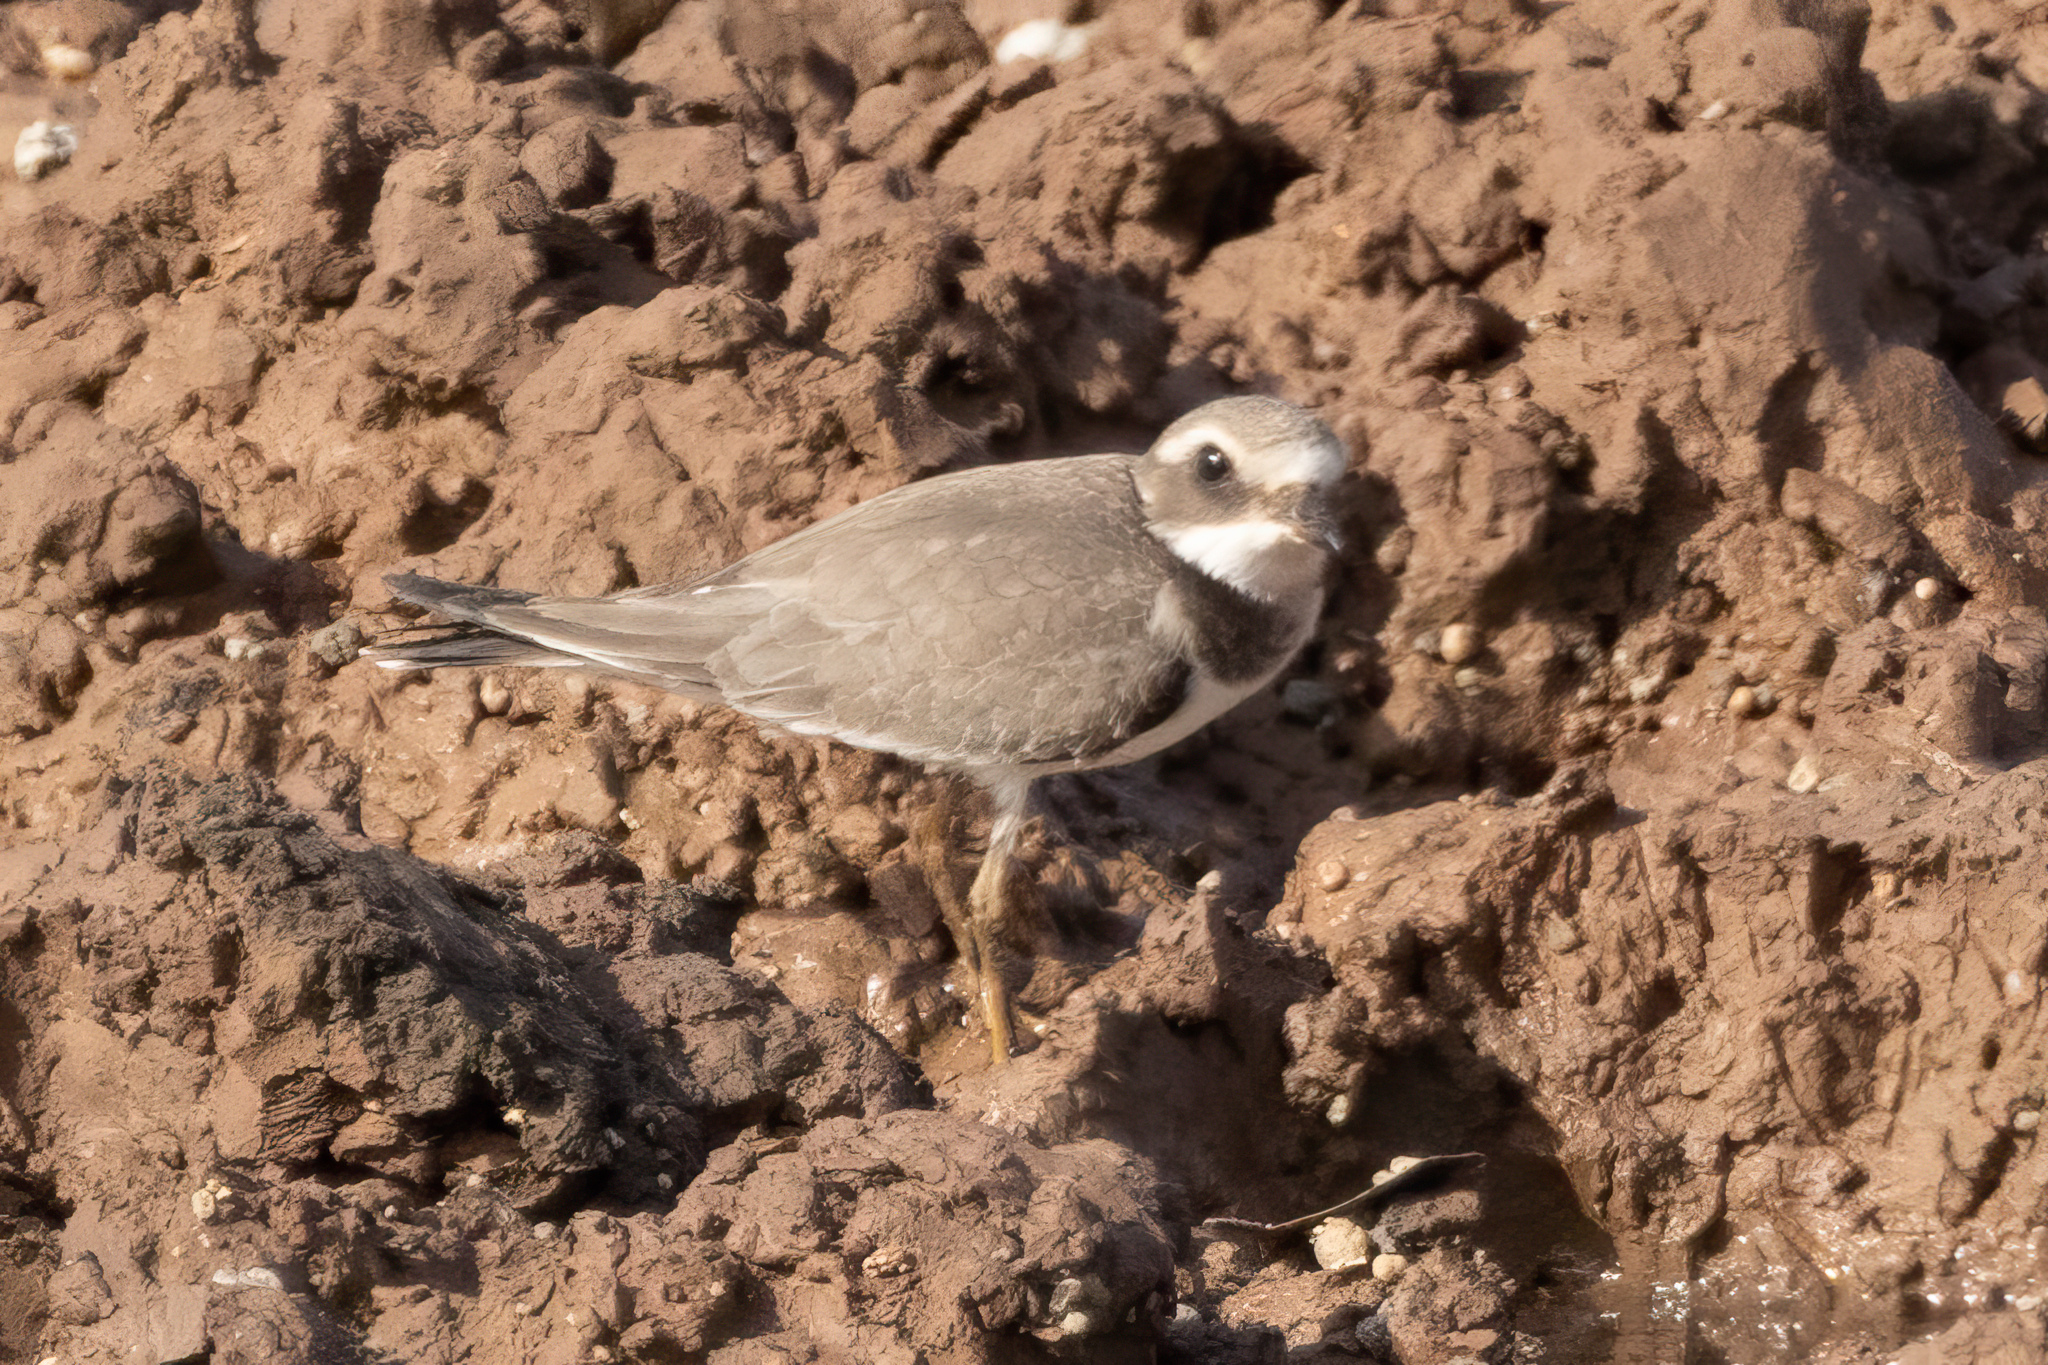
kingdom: Animalia
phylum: Chordata
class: Aves
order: Charadriiformes
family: Charadriidae
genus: Charadrius
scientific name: Charadrius hiaticula
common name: Common ringed plover
